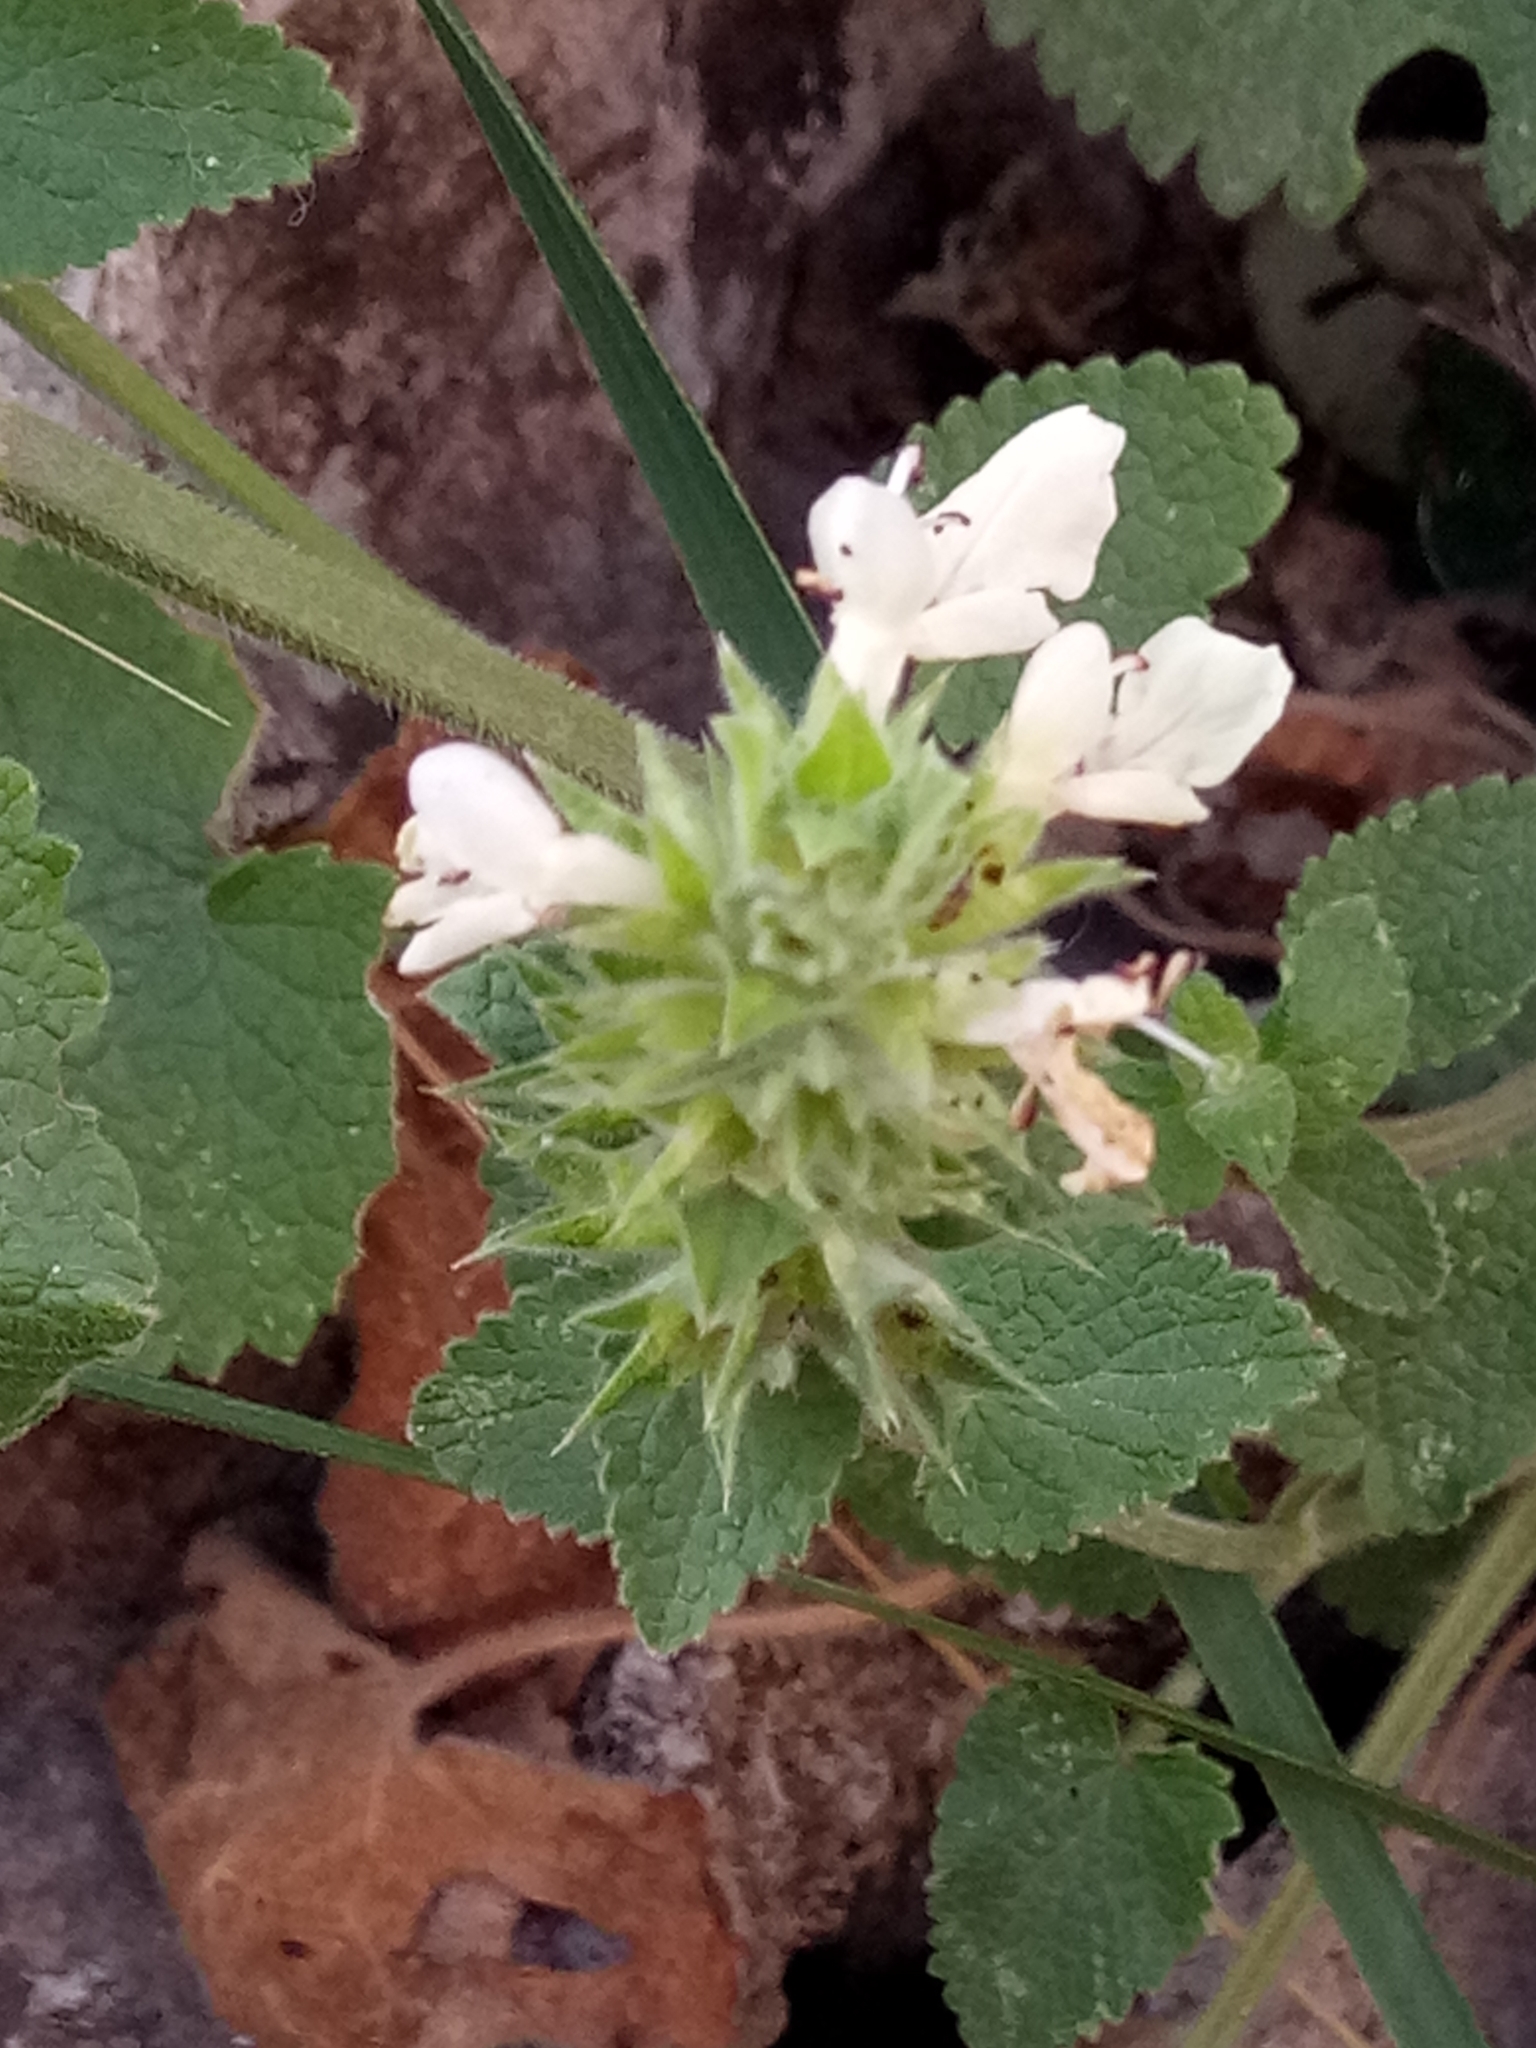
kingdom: Plantae
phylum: Tracheophyta
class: Magnoliopsida
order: Lamiales
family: Lamiaceae
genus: Stachys
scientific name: Stachys circinata
